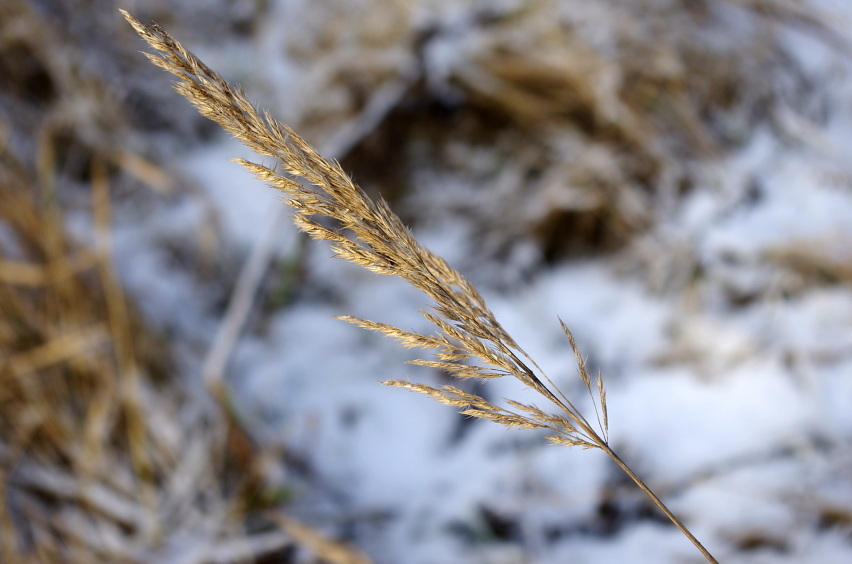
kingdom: Plantae
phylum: Tracheophyta
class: Liliopsida
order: Poales
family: Poaceae
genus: Calamagrostis
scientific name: Calamagrostis epigejos
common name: Wood small-reed
